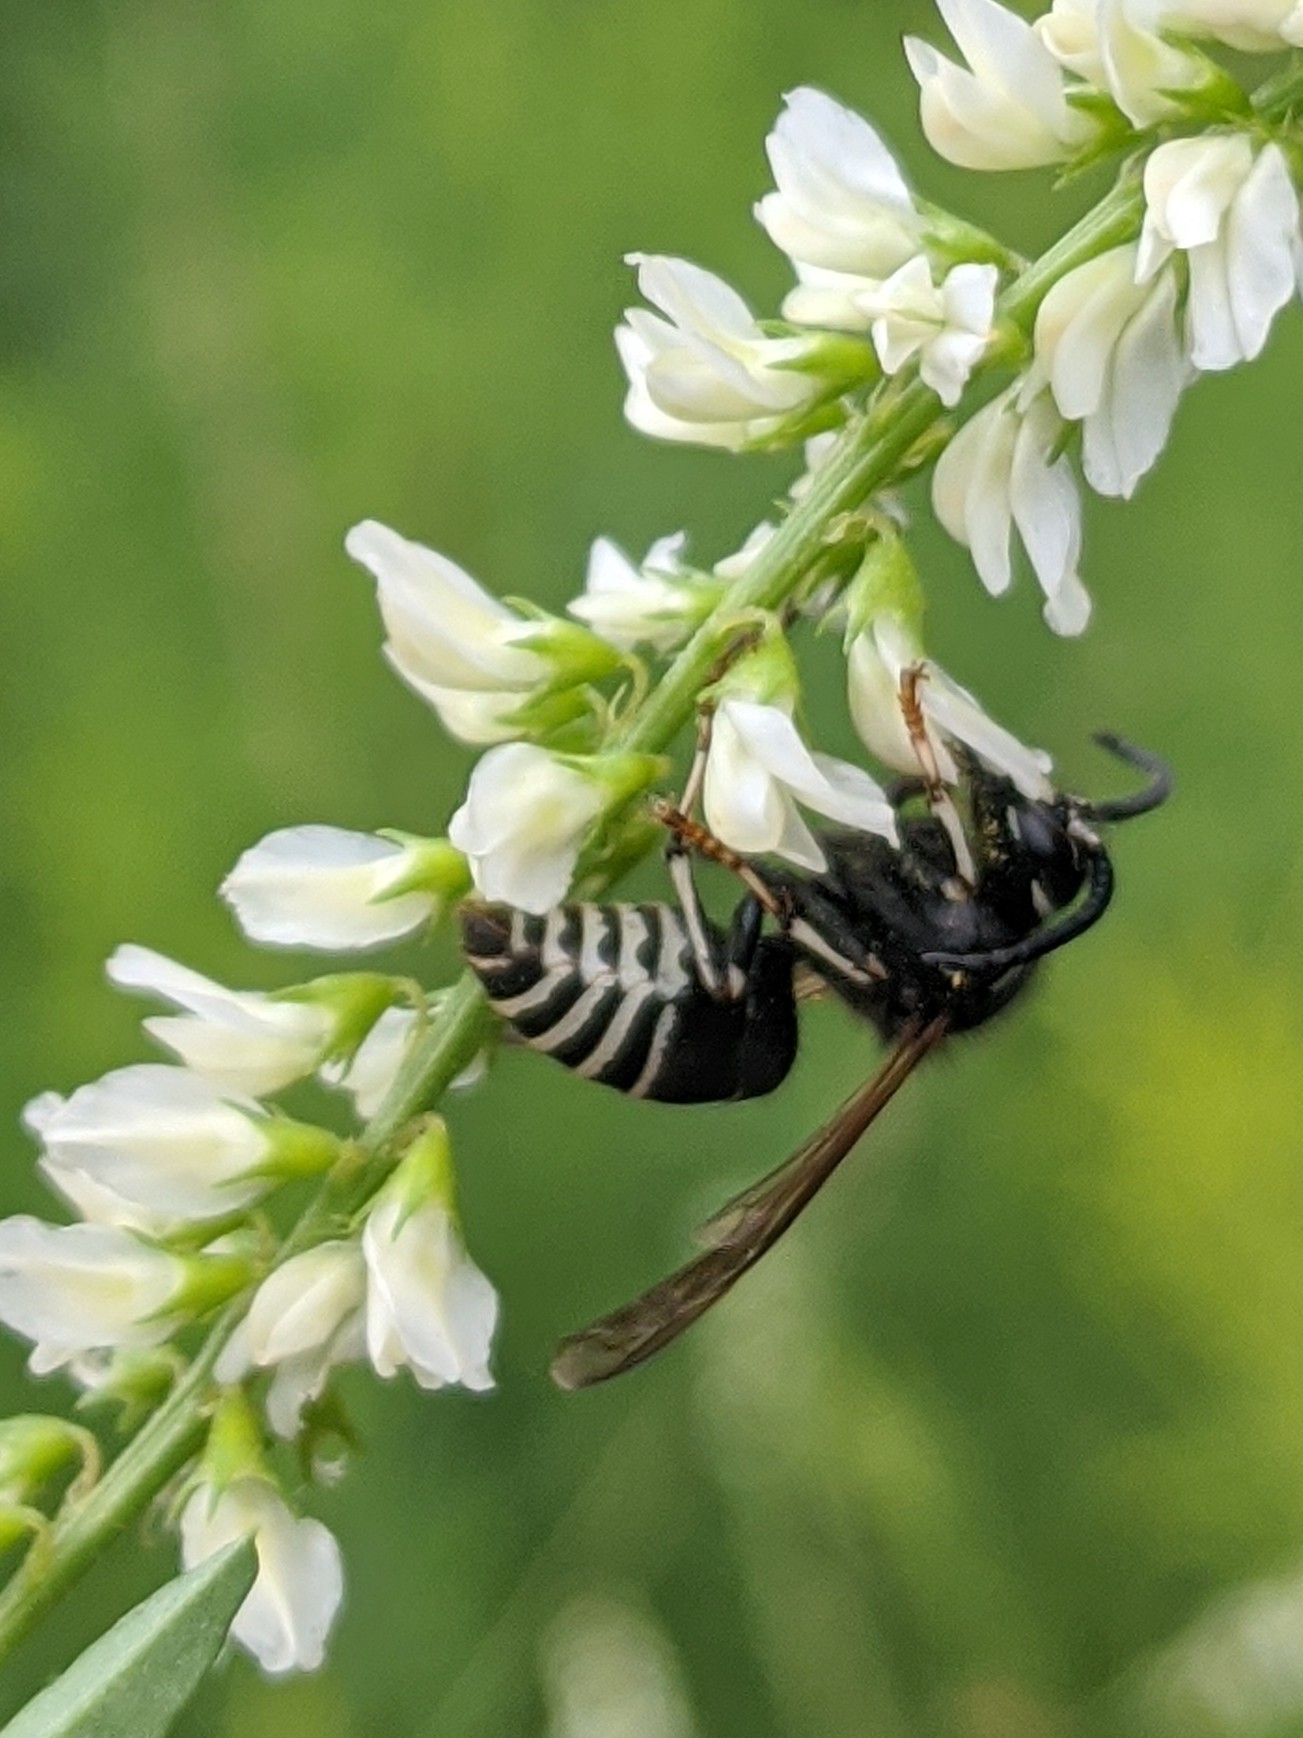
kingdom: Animalia
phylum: Arthropoda
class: Insecta
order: Hymenoptera
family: Vespidae
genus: Dolichovespula
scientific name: Dolichovespula adulterina
